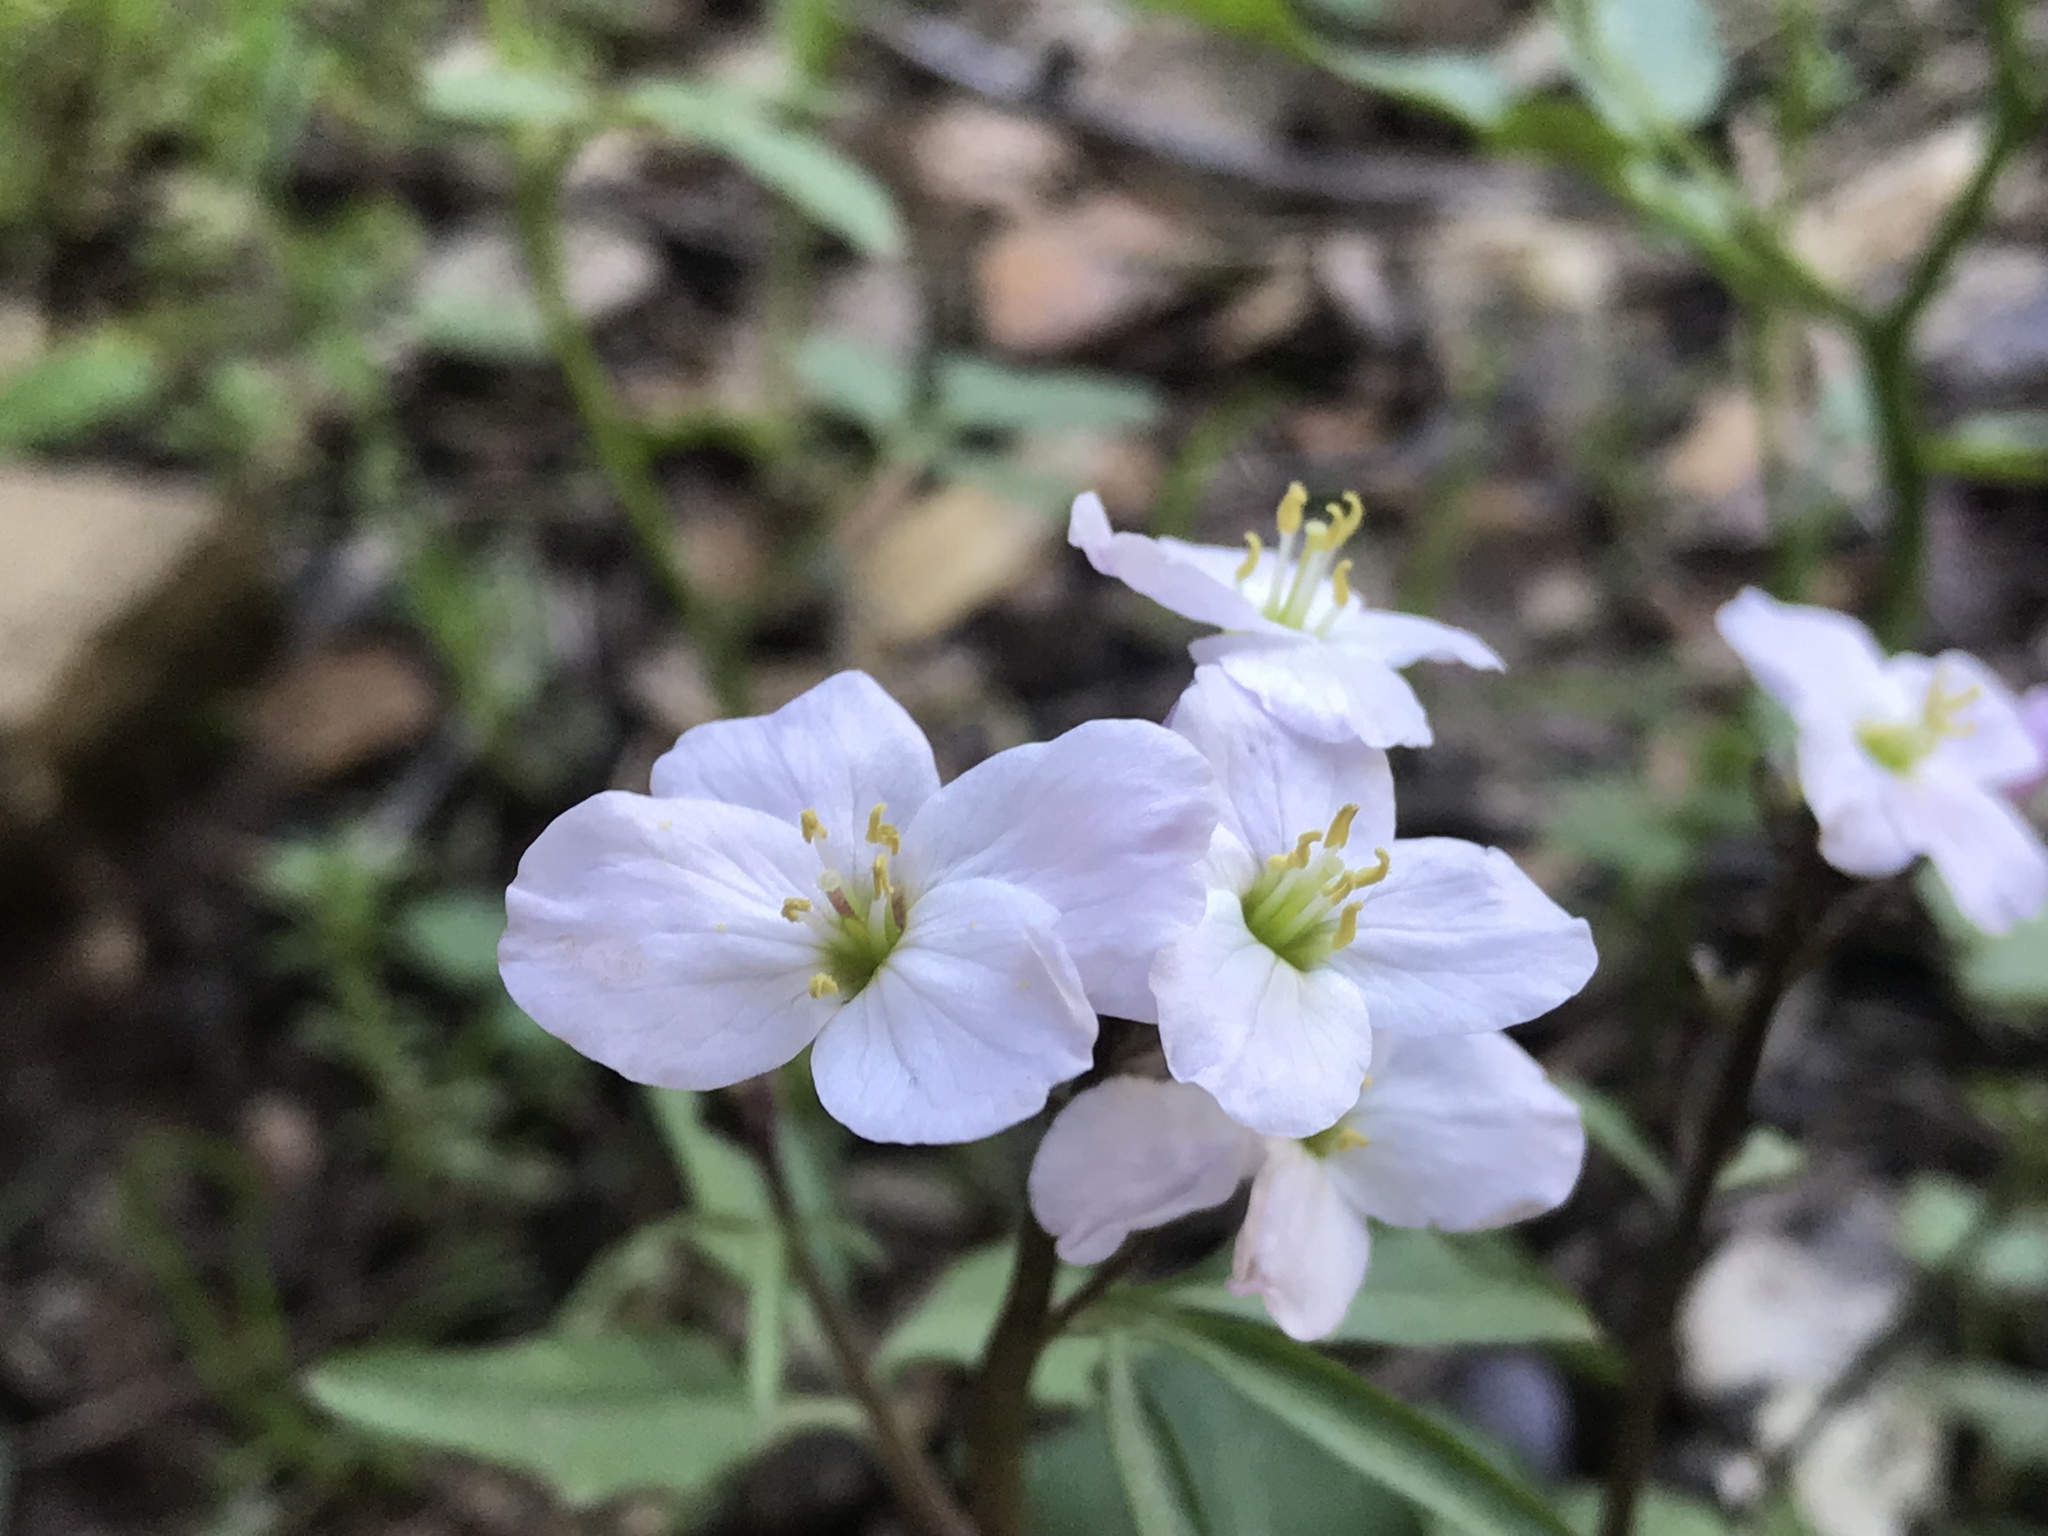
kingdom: Plantae
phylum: Tracheophyta
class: Magnoliopsida
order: Brassicales
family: Brassicaceae
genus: Cardamine
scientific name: Cardamine californica
